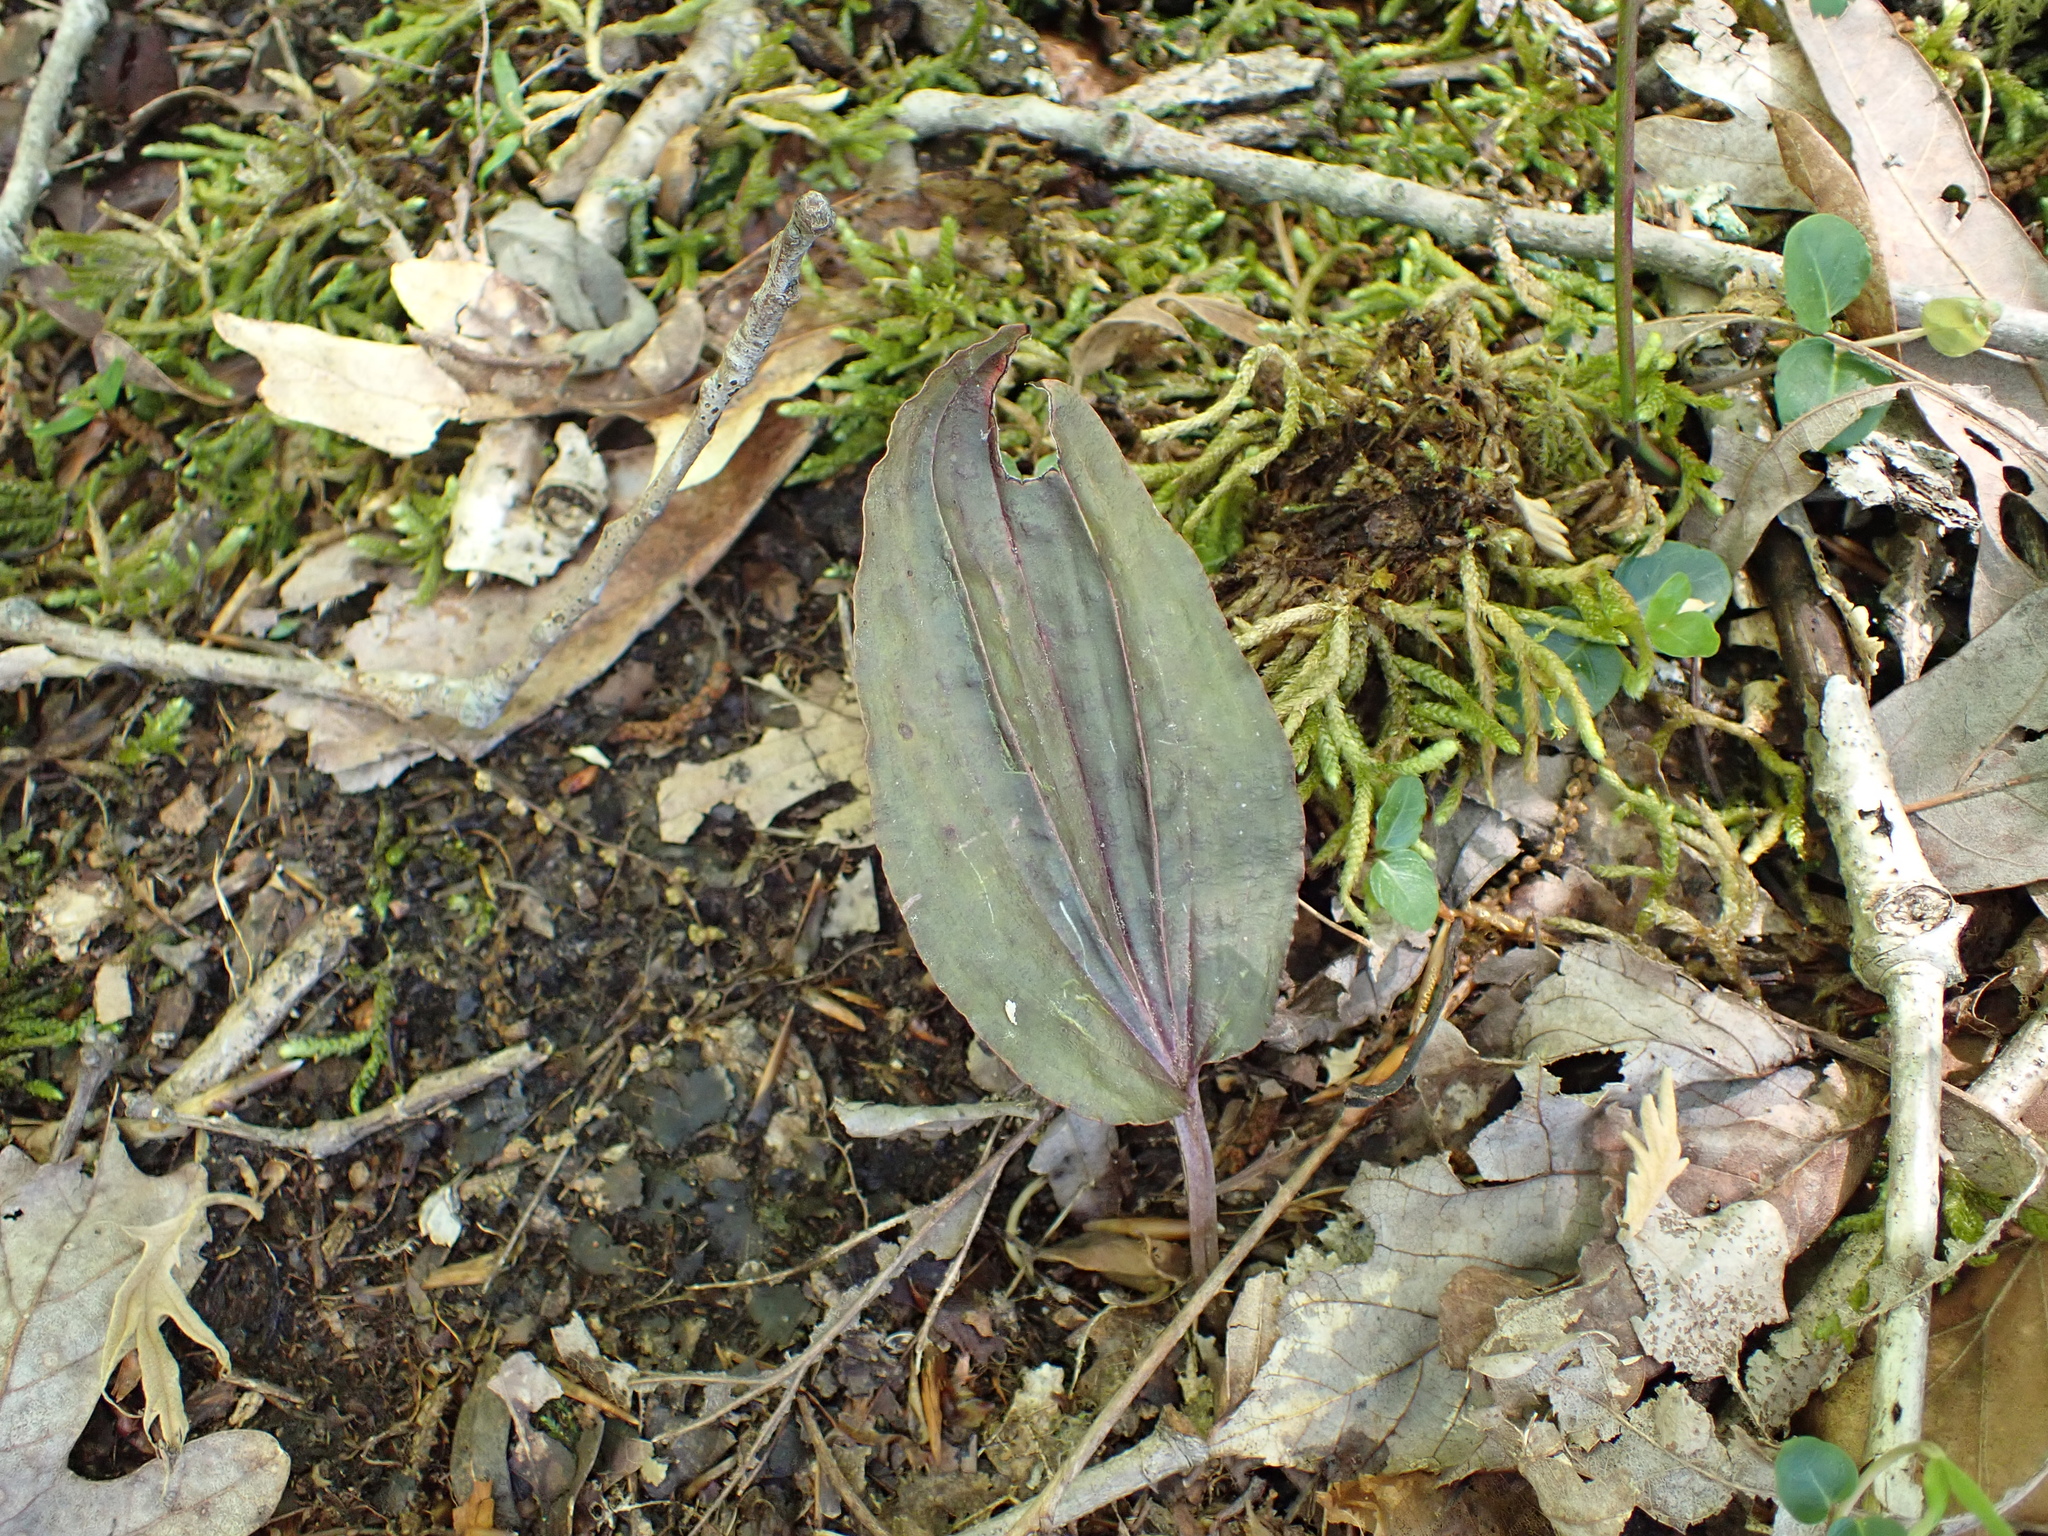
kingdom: Plantae
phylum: Tracheophyta
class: Liliopsida
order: Asparagales
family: Orchidaceae
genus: Tipularia
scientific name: Tipularia discolor
